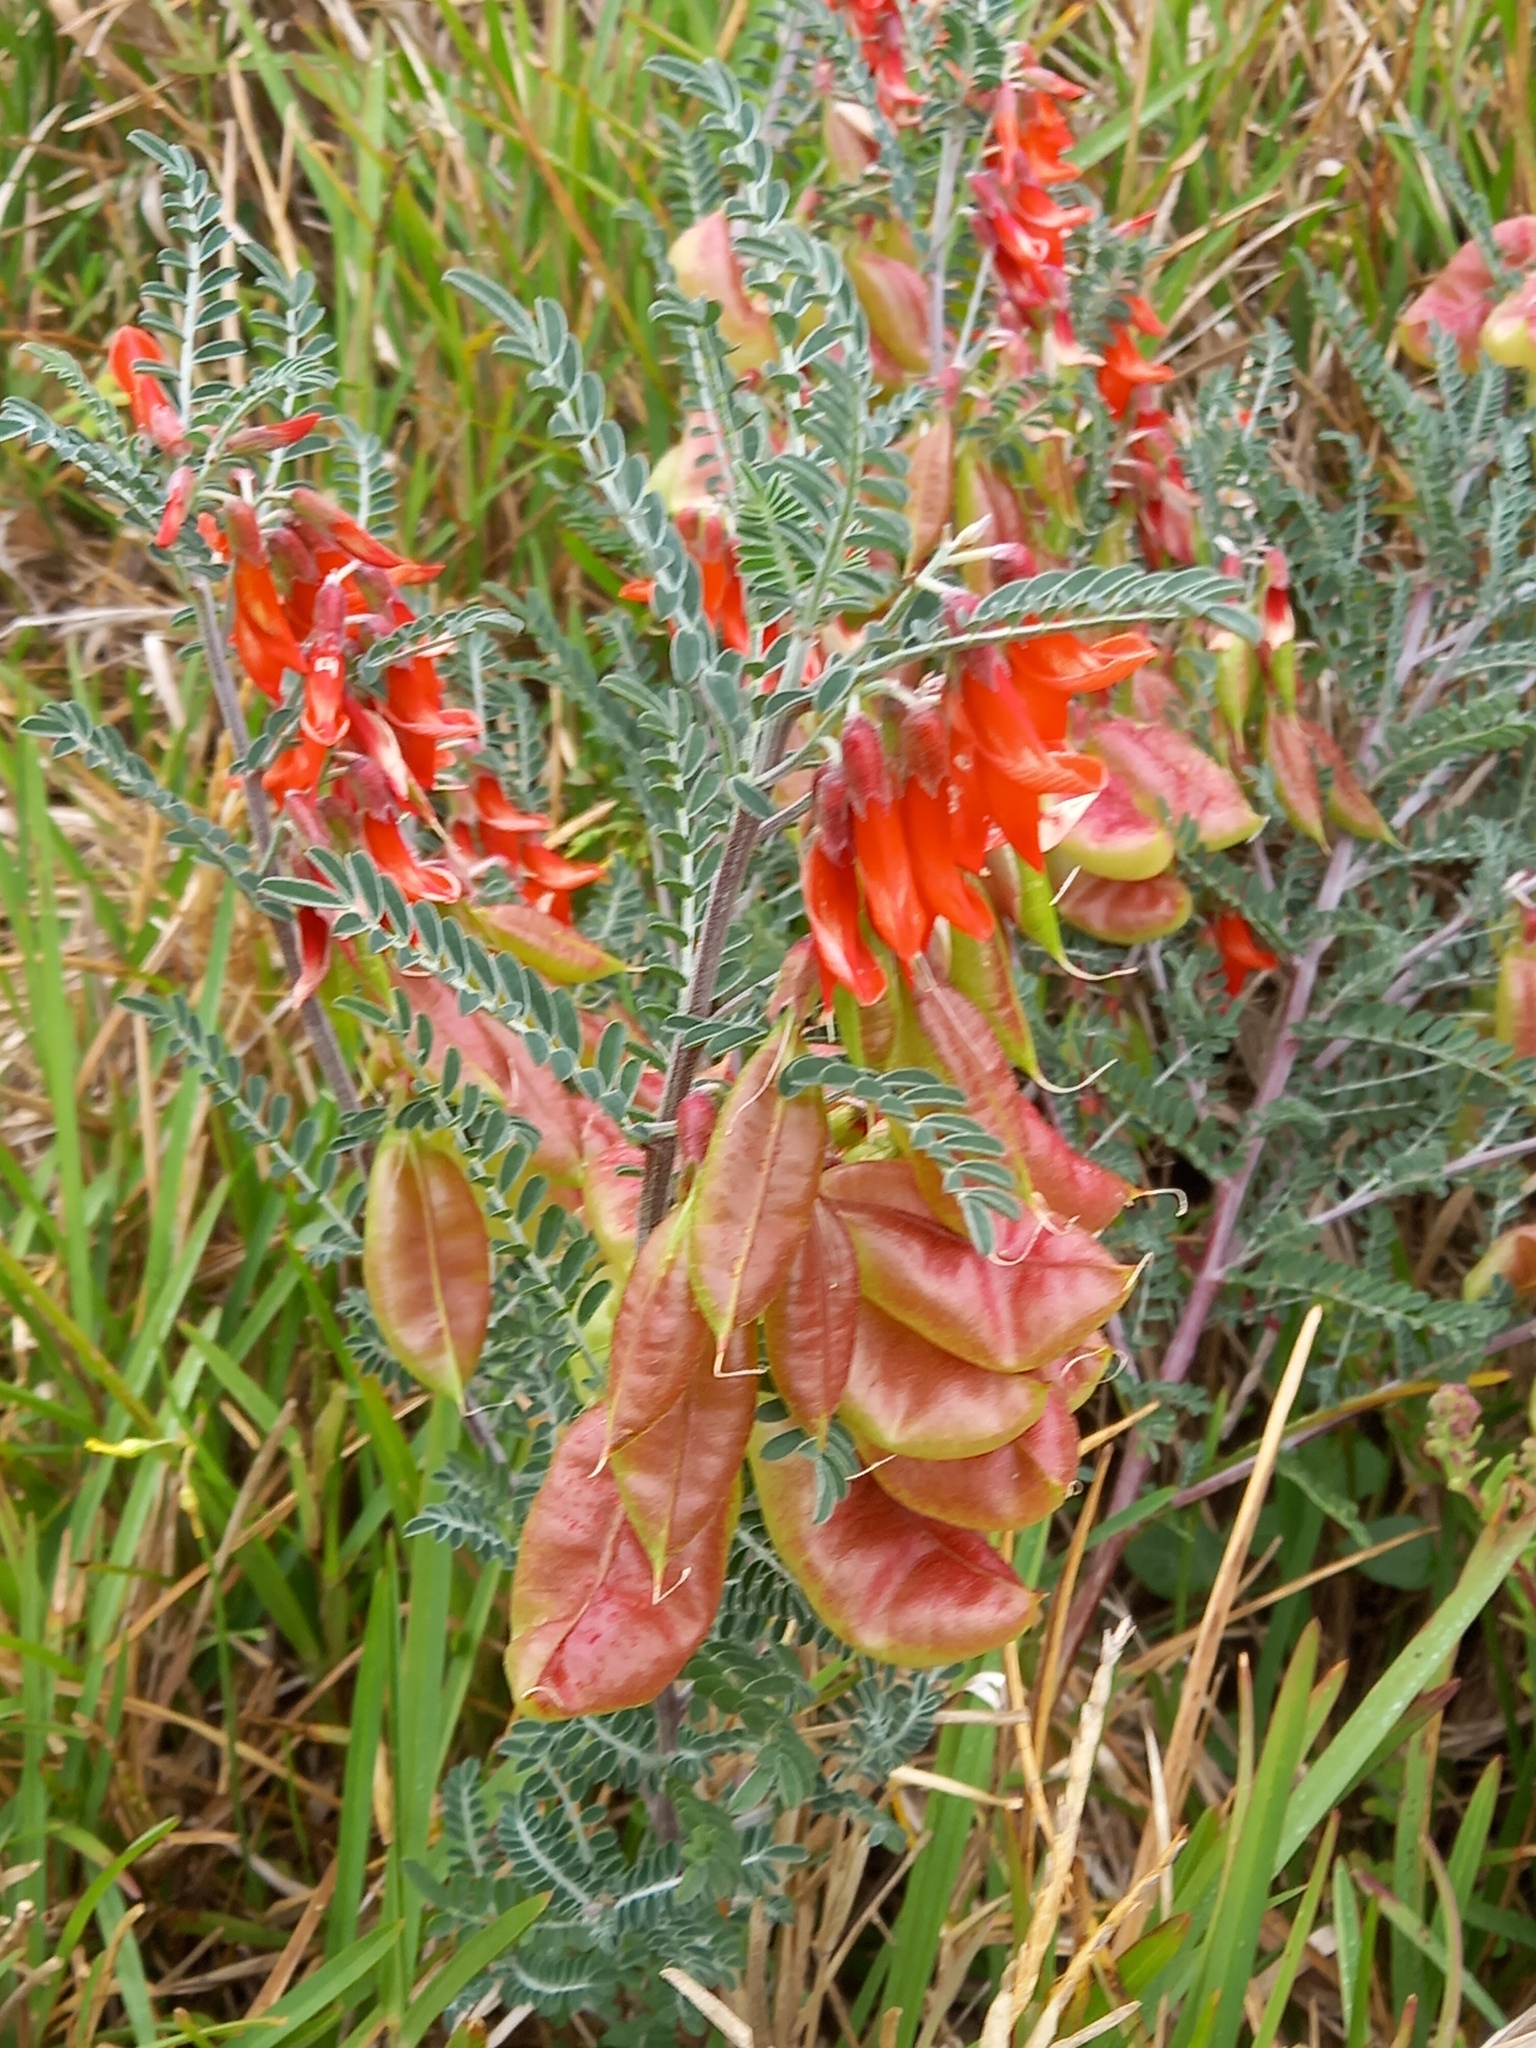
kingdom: Plantae
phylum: Tracheophyta
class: Magnoliopsida
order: Fabales
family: Fabaceae
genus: Lessertia
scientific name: Lessertia frutescens
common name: Balloon-pea
